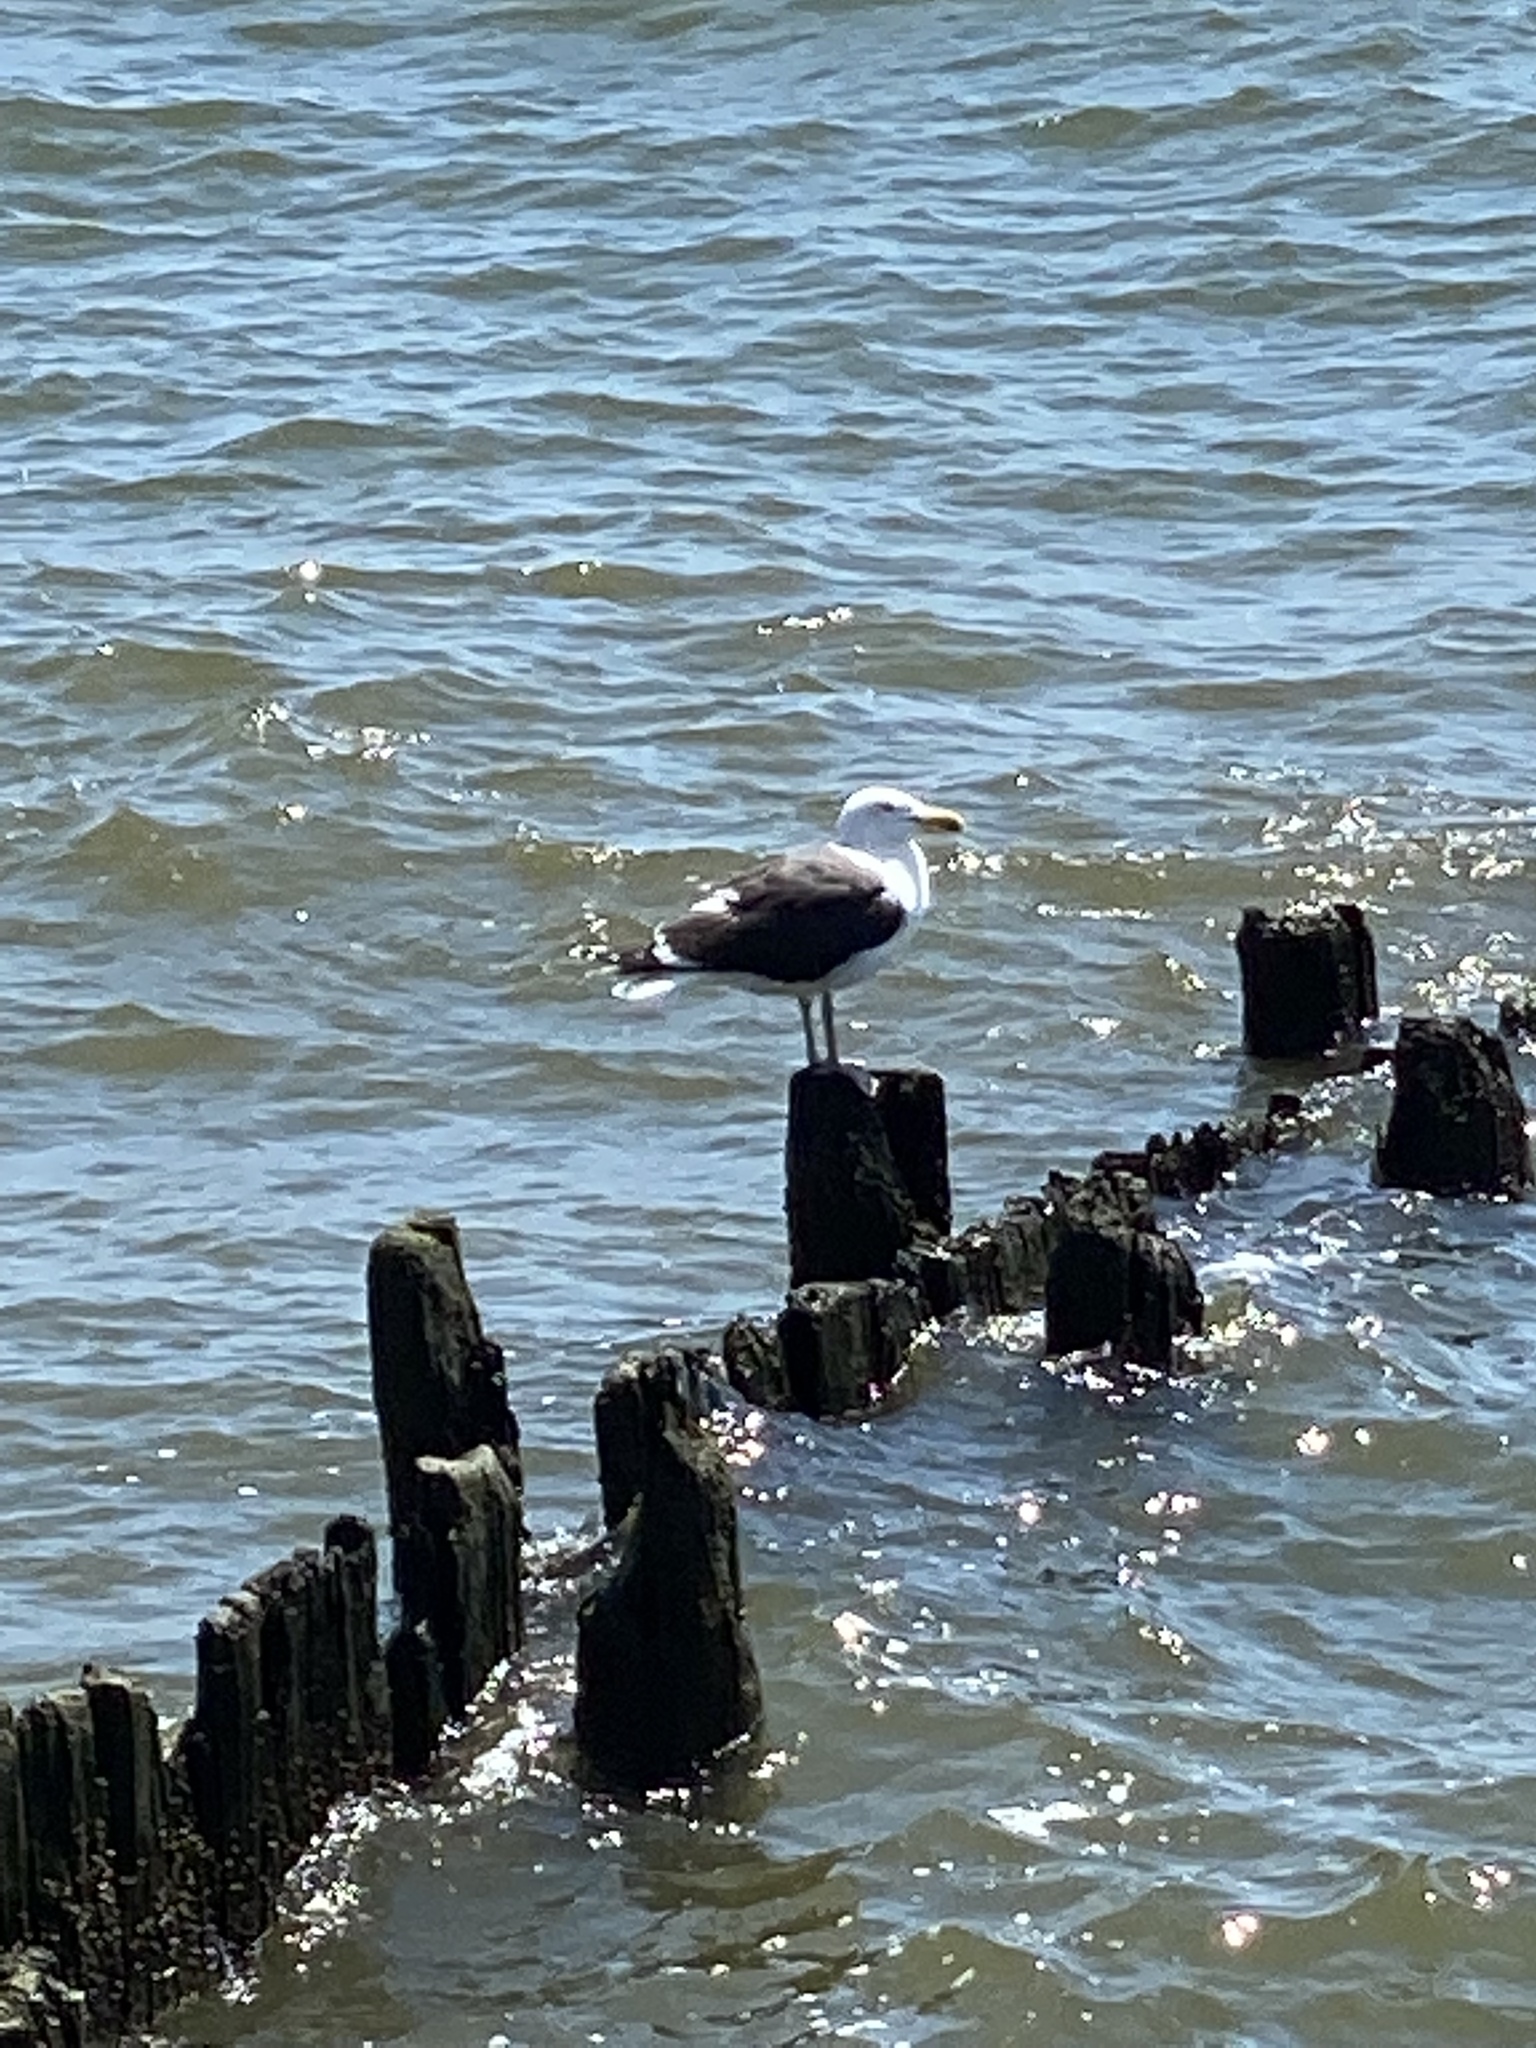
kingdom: Animalia
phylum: Chordata
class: Aves
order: Charadriiformes
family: Laridae
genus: Larus
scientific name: Larus marinus
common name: Great black-backed gull
